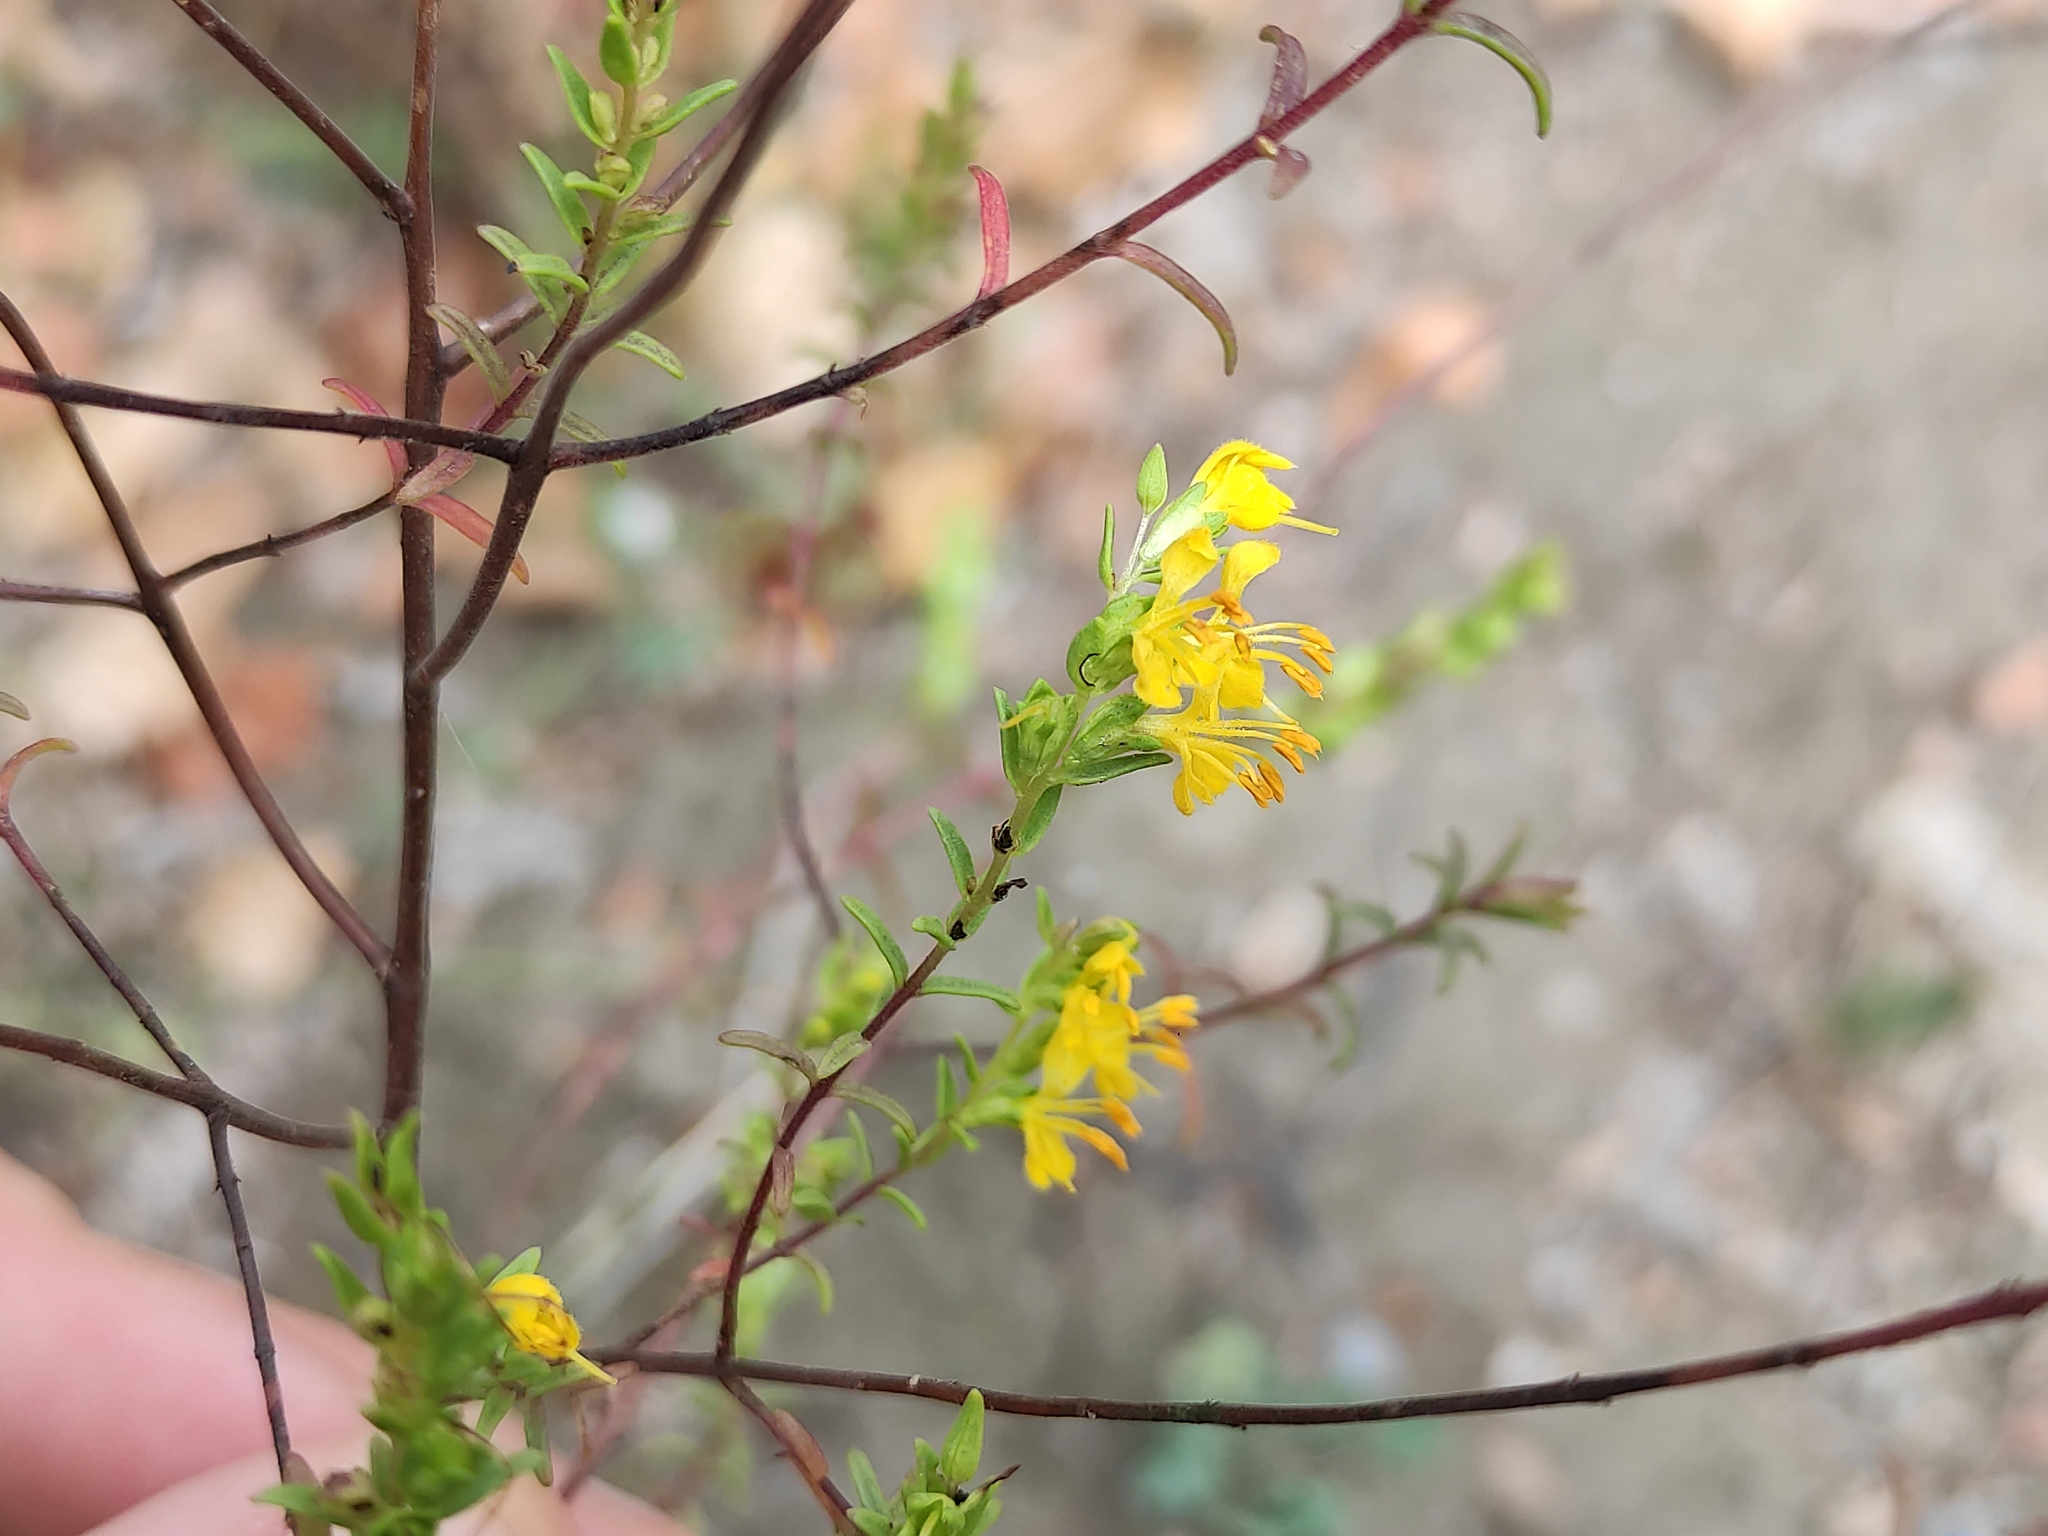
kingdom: Plantae
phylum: Tracheophyta
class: Magnoliopsida
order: Lamiales
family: Orobanchaceae
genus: Odontites
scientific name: Odontites luteus
